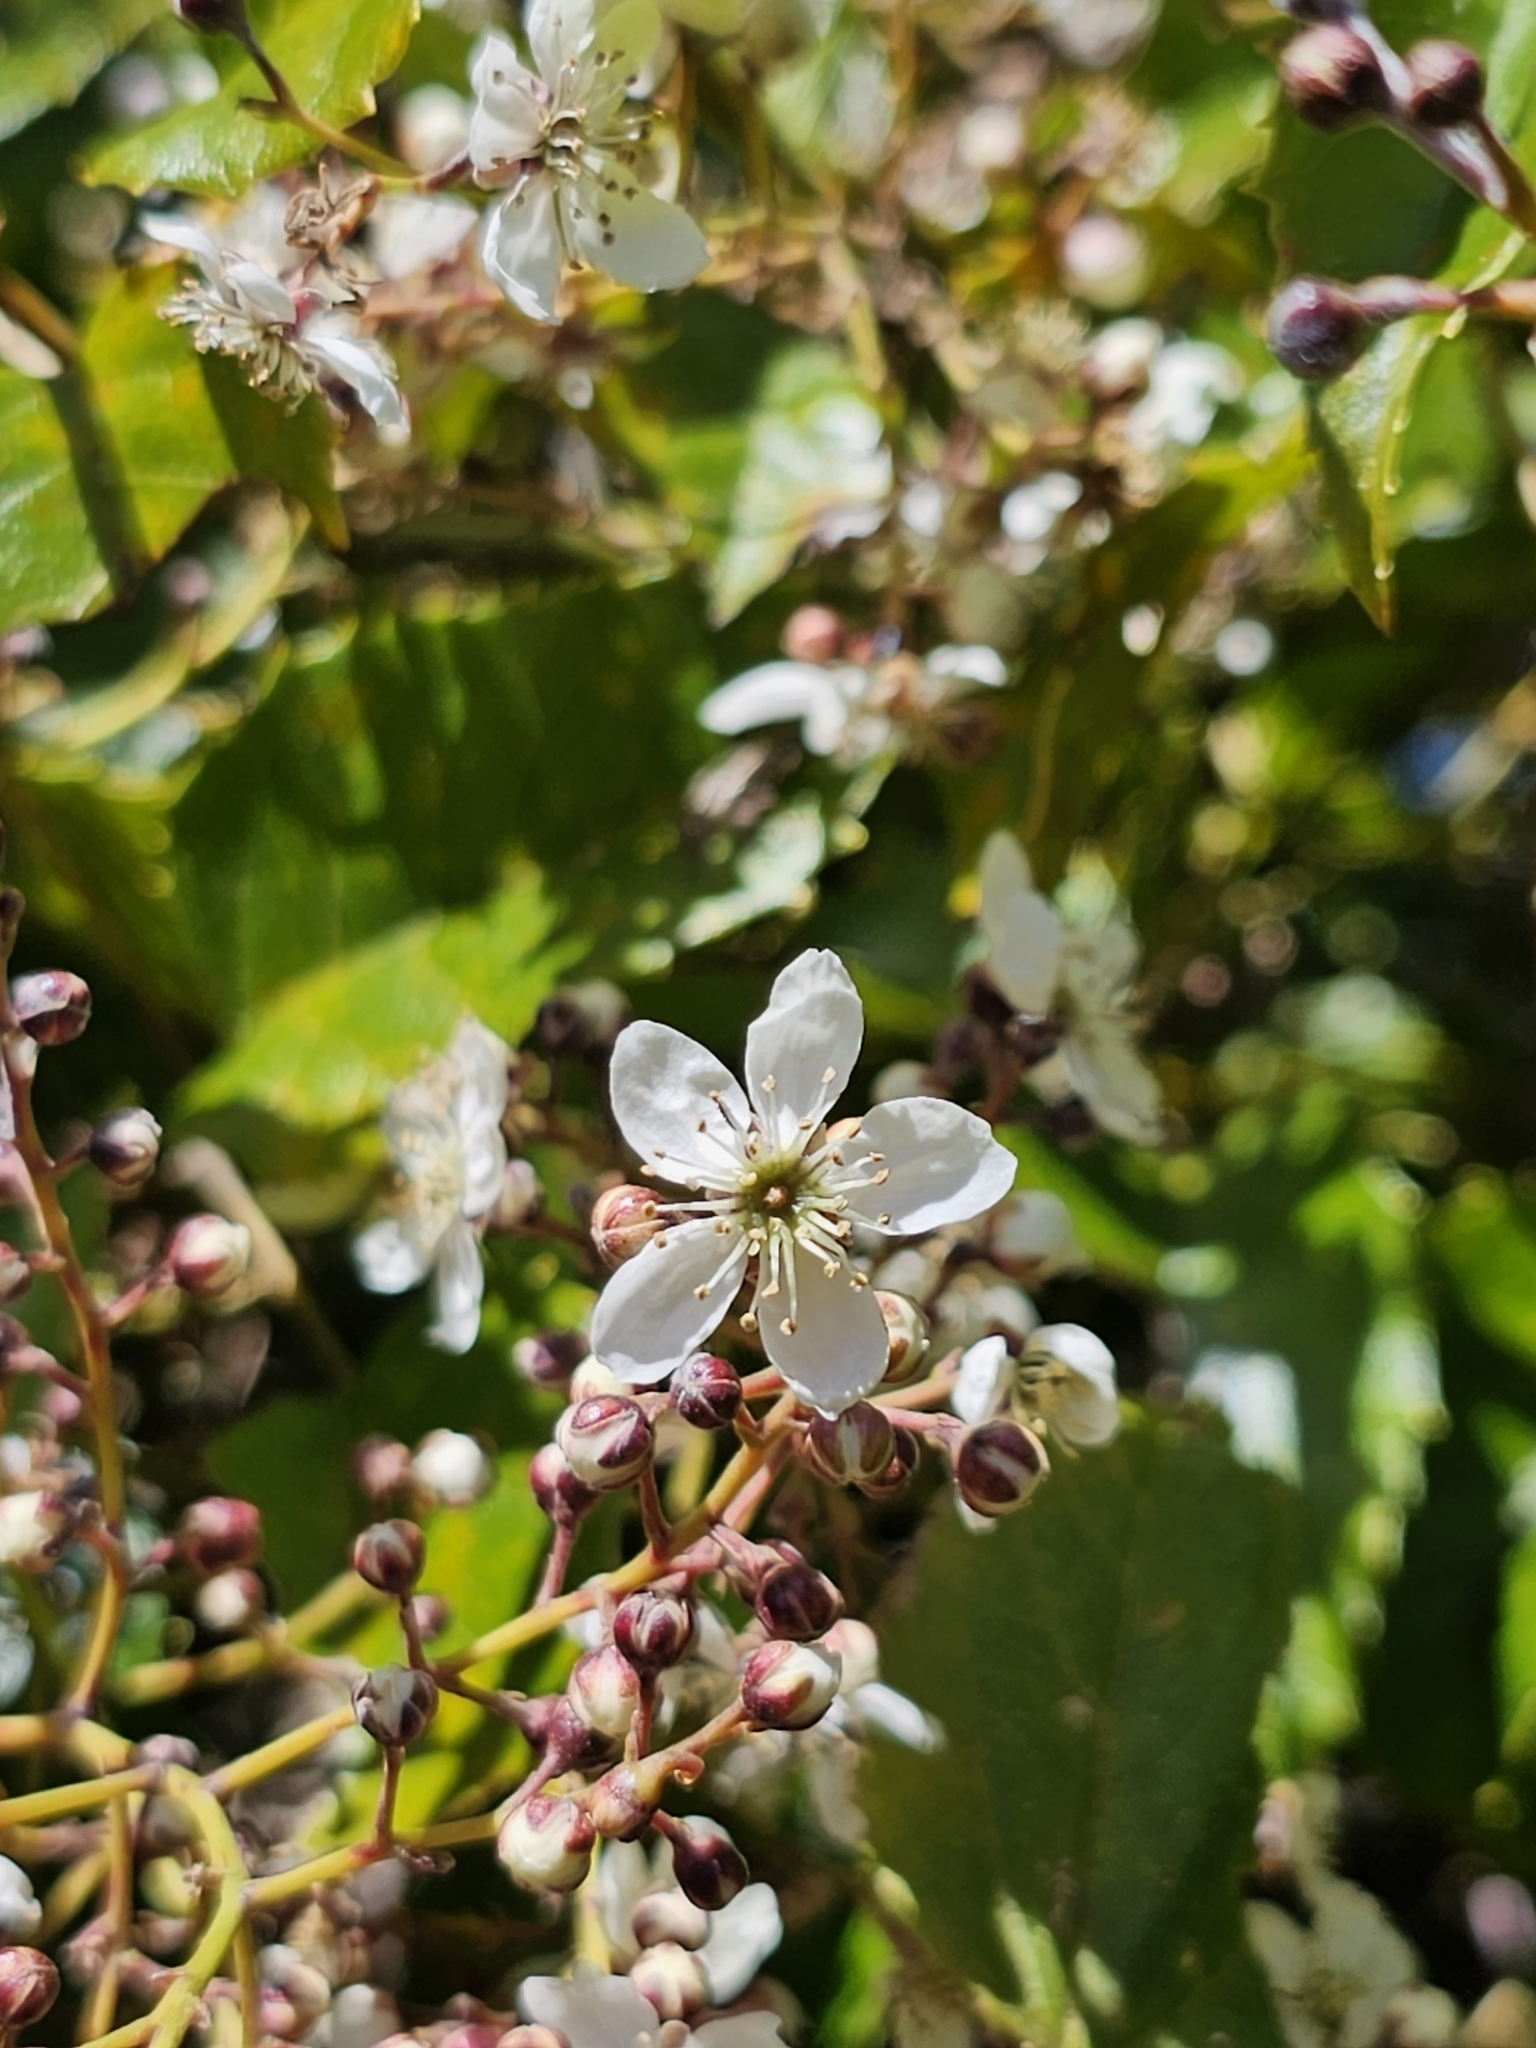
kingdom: Plantae
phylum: Tracheophyta
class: Magnoliopsida
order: Rosales
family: Rosaceae
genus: Rubus
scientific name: Rubus cissoides
